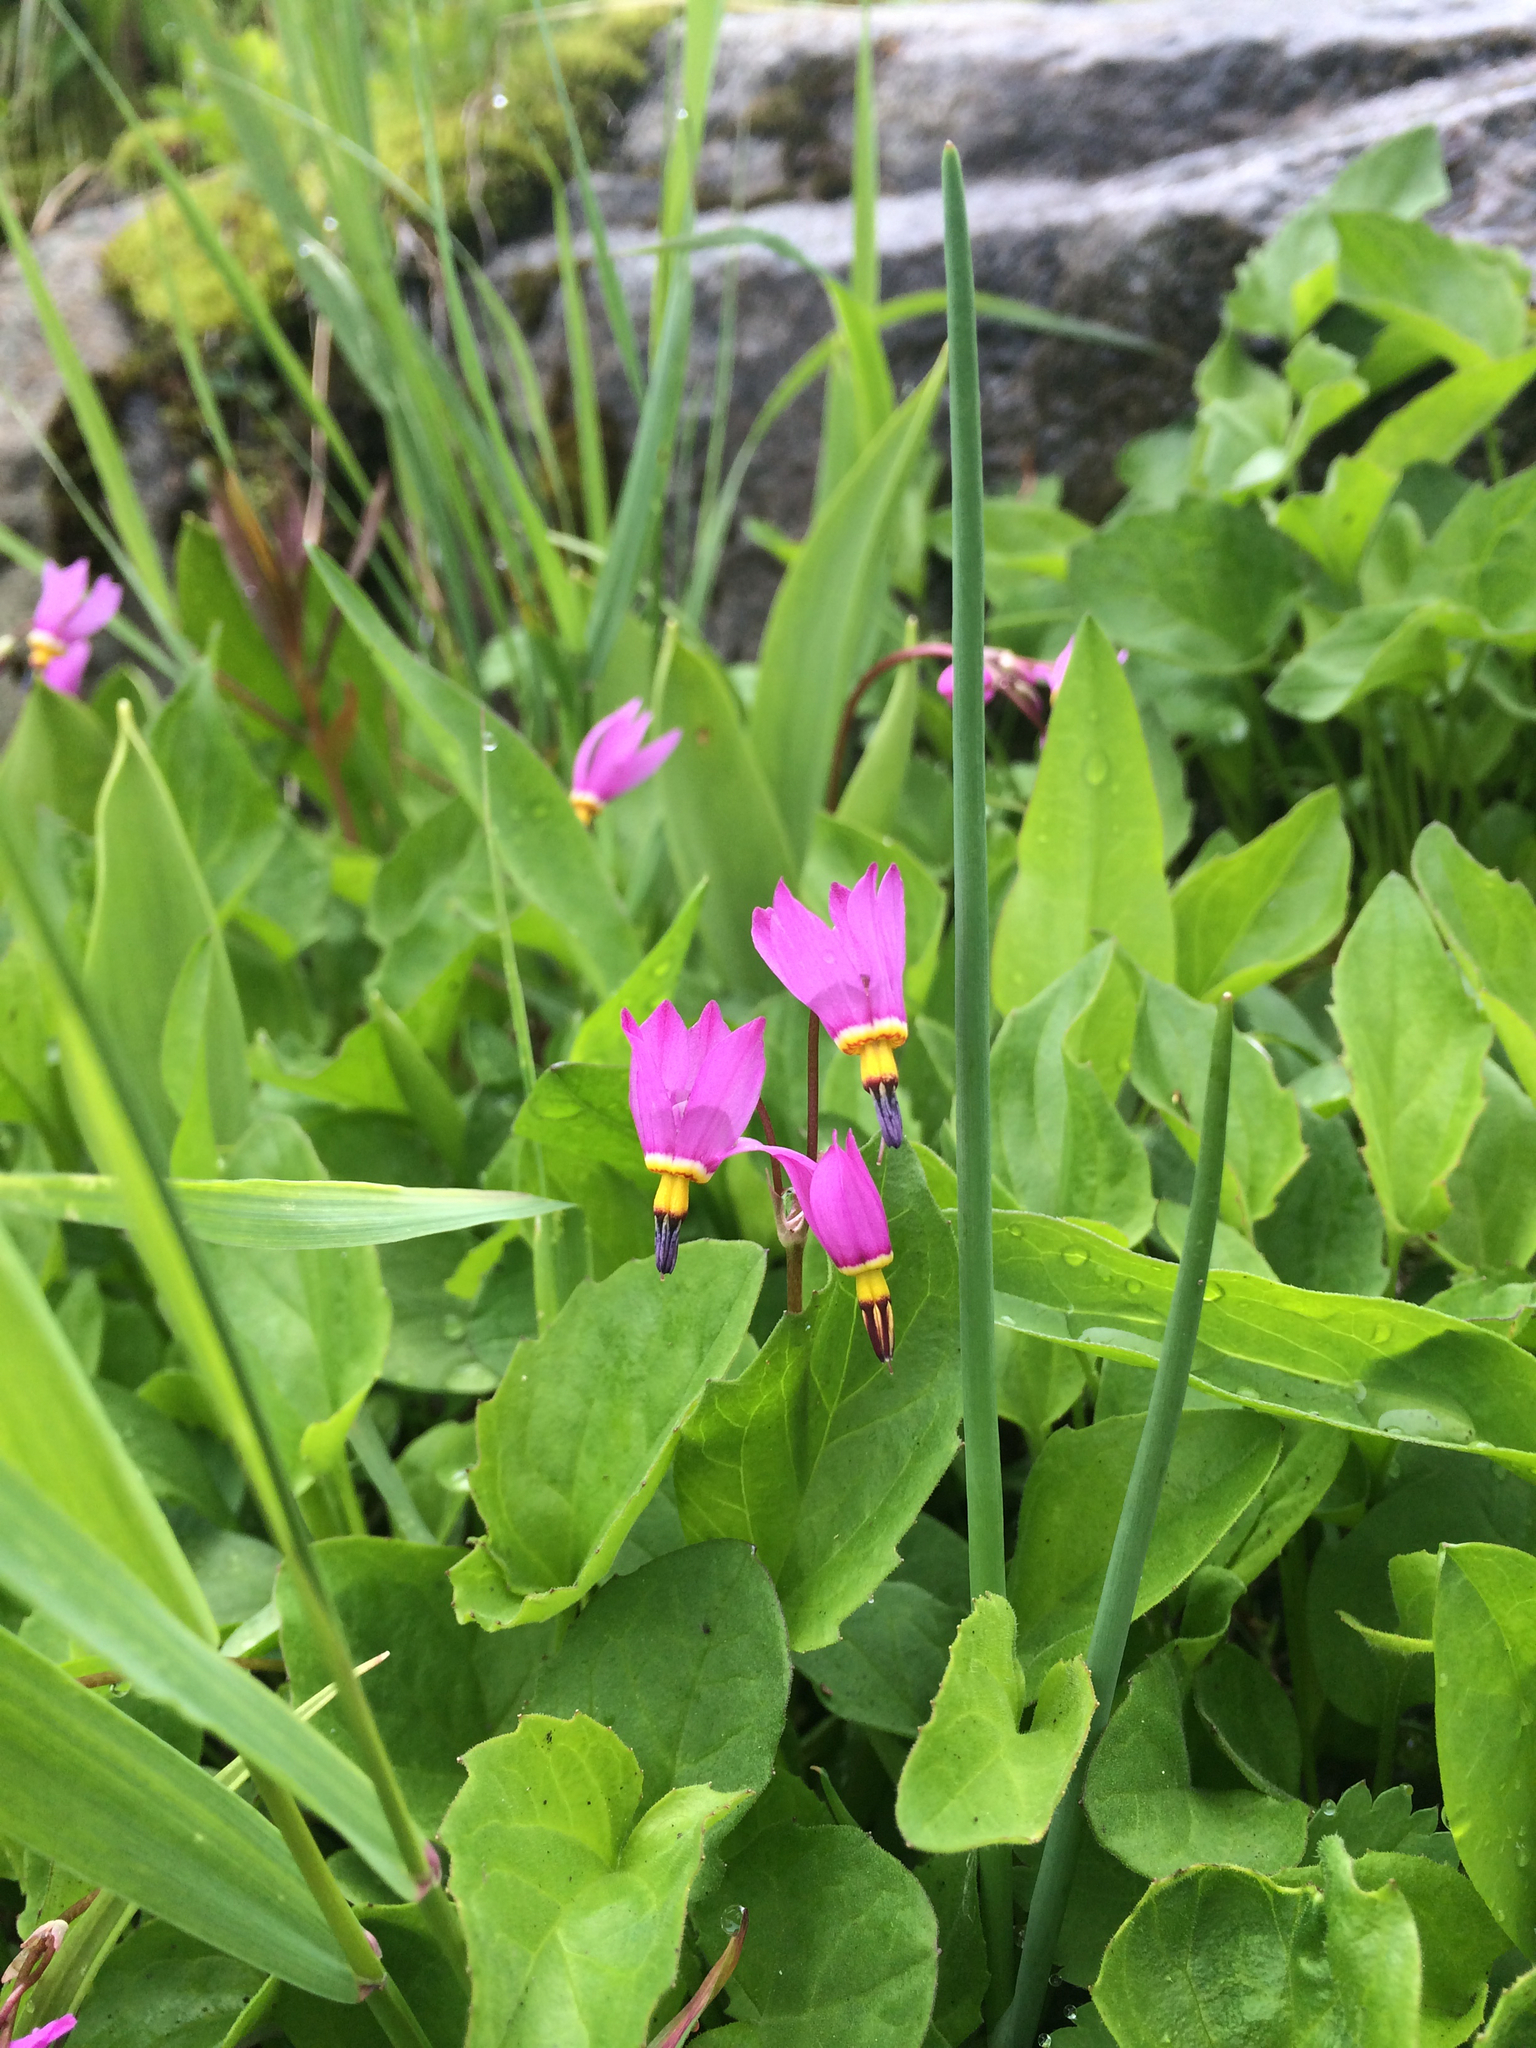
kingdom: Plantae
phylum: Tracheophyta
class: Magnoliopsida
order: Ericales
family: Primulaceae
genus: Dodecatheon
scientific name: Dodecatheon pulchellum
